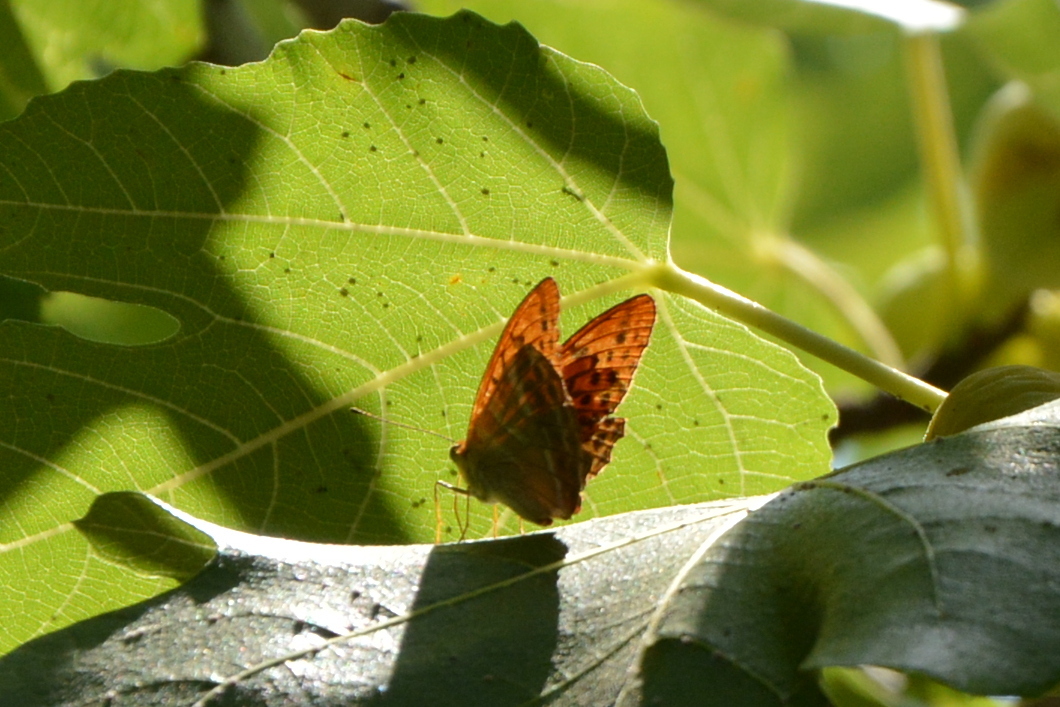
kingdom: Animalia
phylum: Arthropoda
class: Insecta
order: Lepidoptera
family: Nymphalidae
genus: Argynnis
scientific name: Argynnis paphia
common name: Silver-washed fritillary
